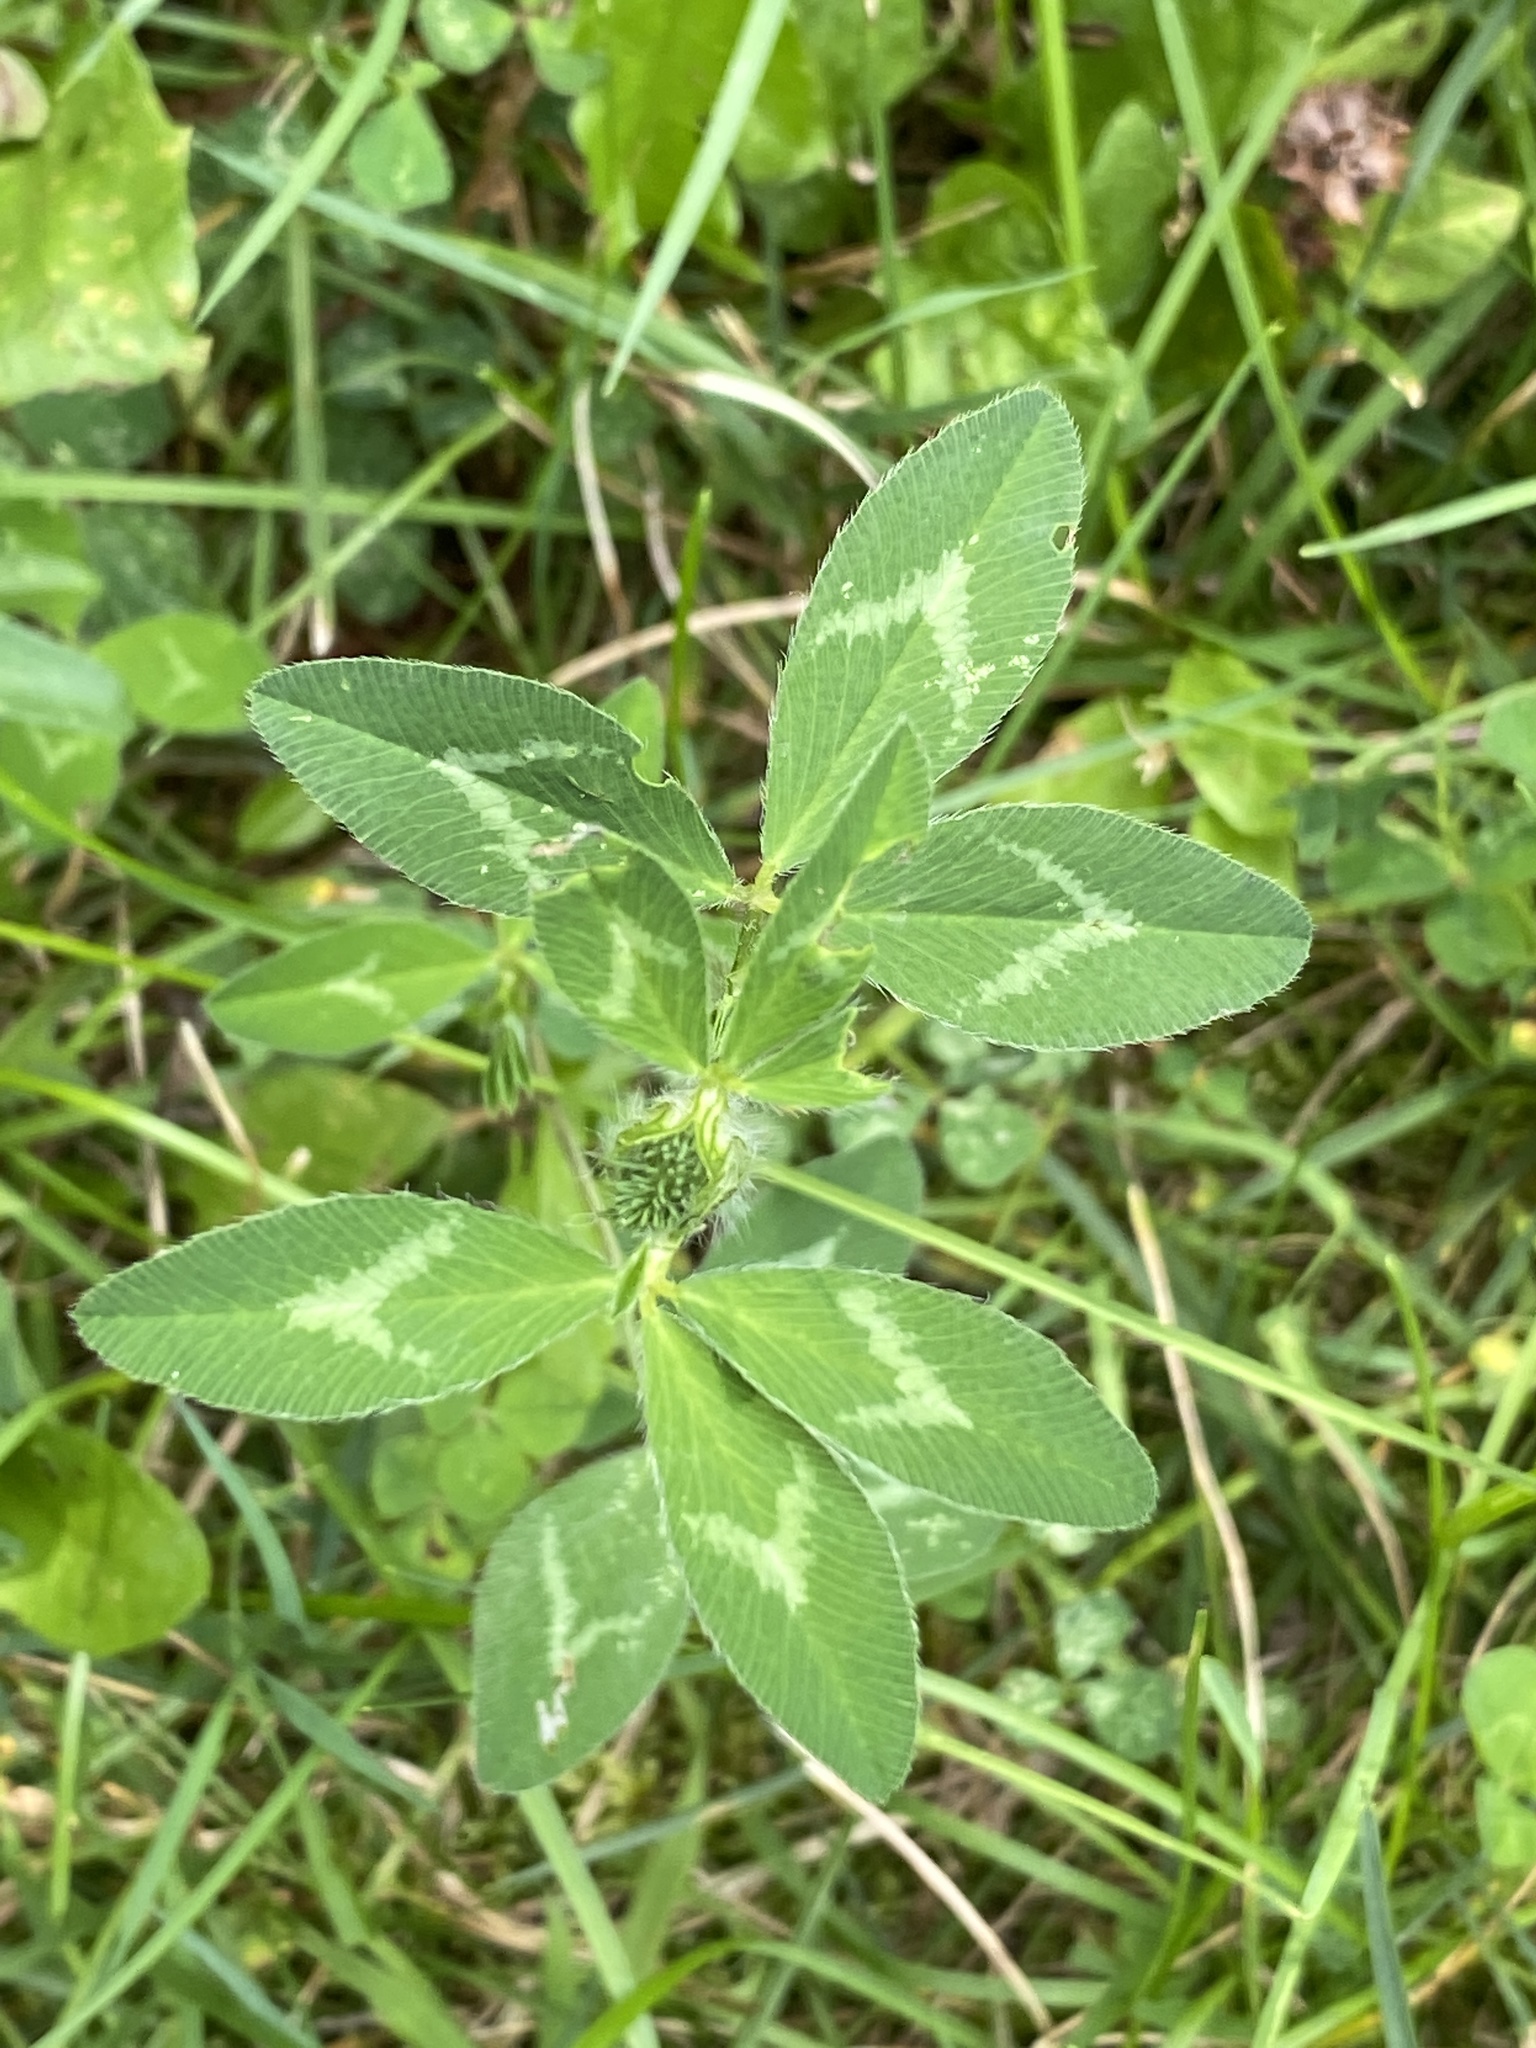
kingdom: Plantae
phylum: Tracheophyta
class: Magnoliopsida
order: Fabales
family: Fabaceae
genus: Trifolium
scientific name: Trifolium pratense
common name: Red clover
